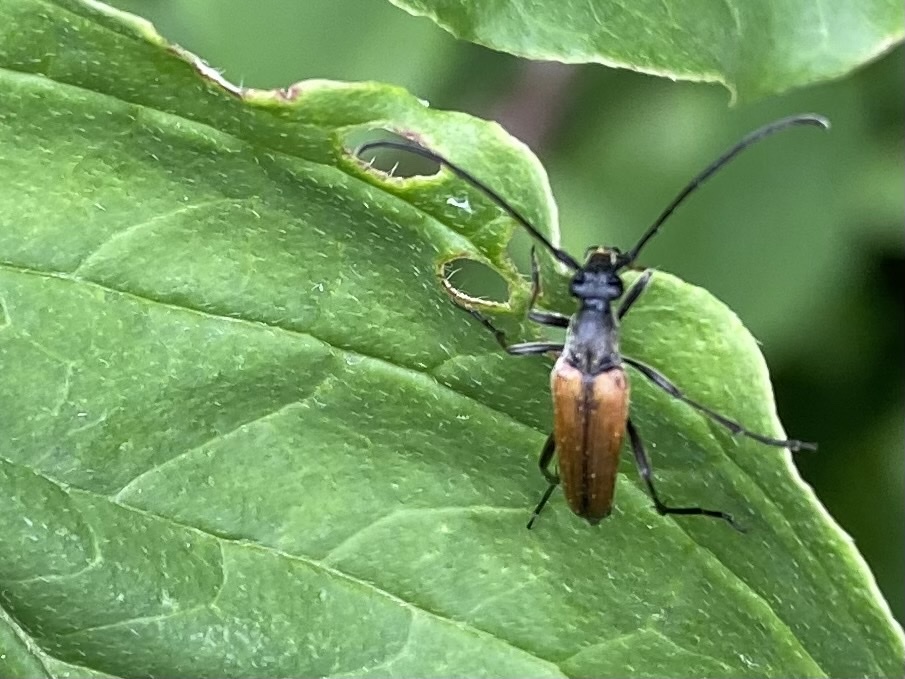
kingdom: Animalia
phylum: Arthropoda
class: Insecta
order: Coleoptera
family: Cerambycidae
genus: Stenurella
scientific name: Stenurella melanura
